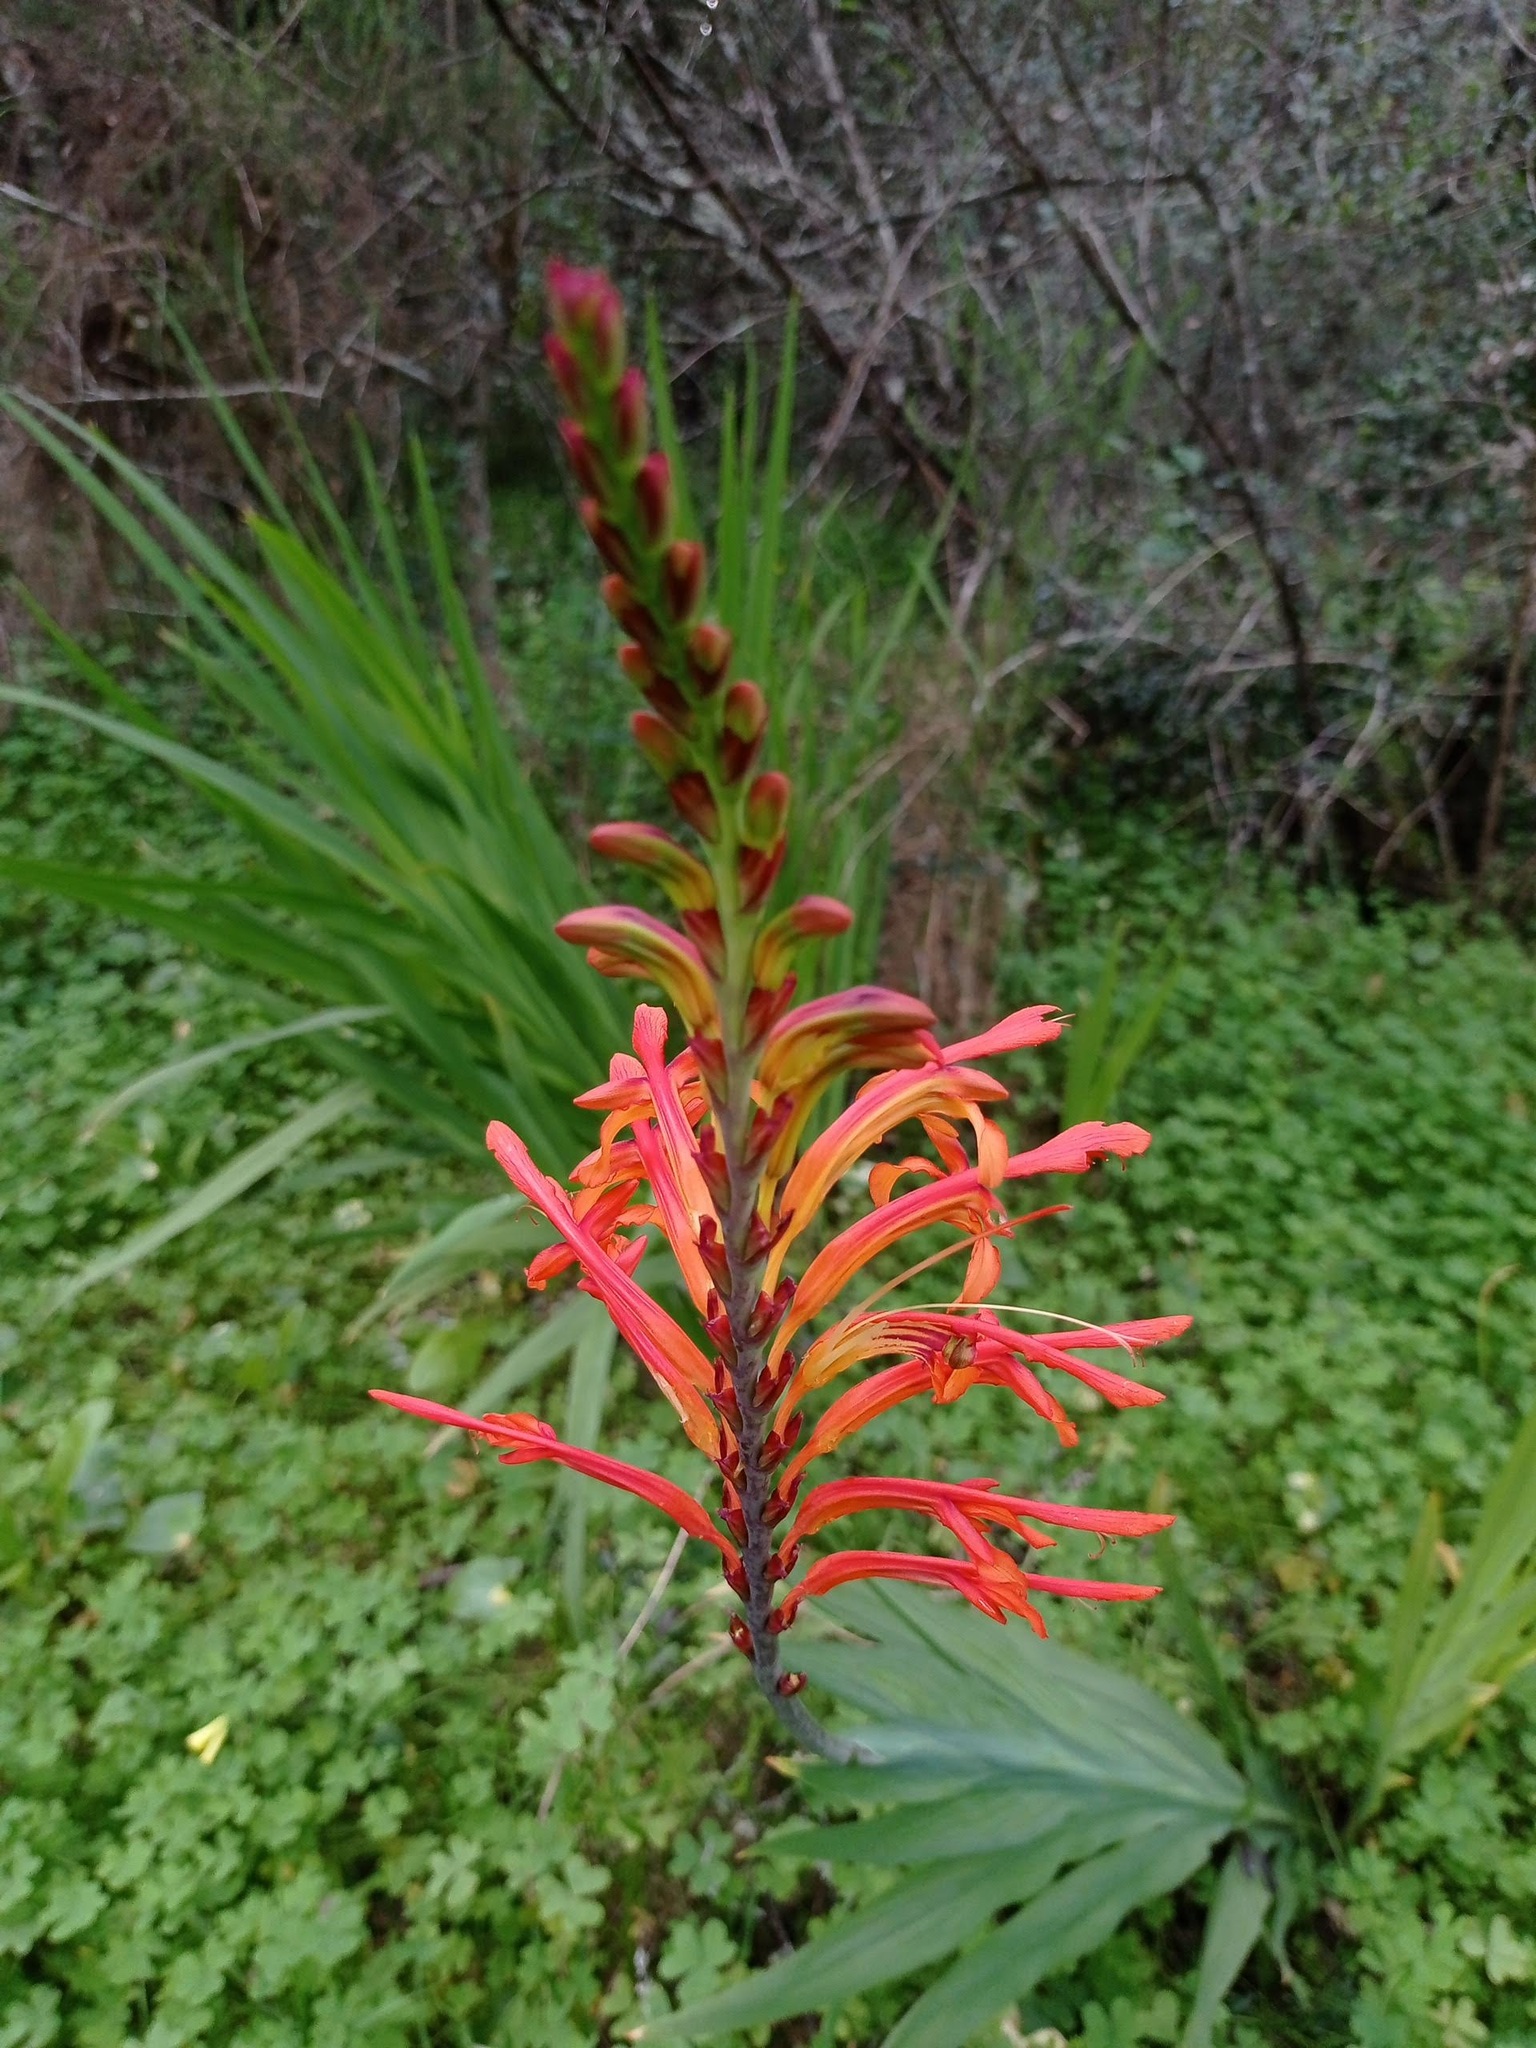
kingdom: Plantae
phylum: Tracheophyta
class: Liliopsida
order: Asparagales
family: Iridaceae
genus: Chasmanthe
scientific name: Chasmanthe floribunda
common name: African cornflag
